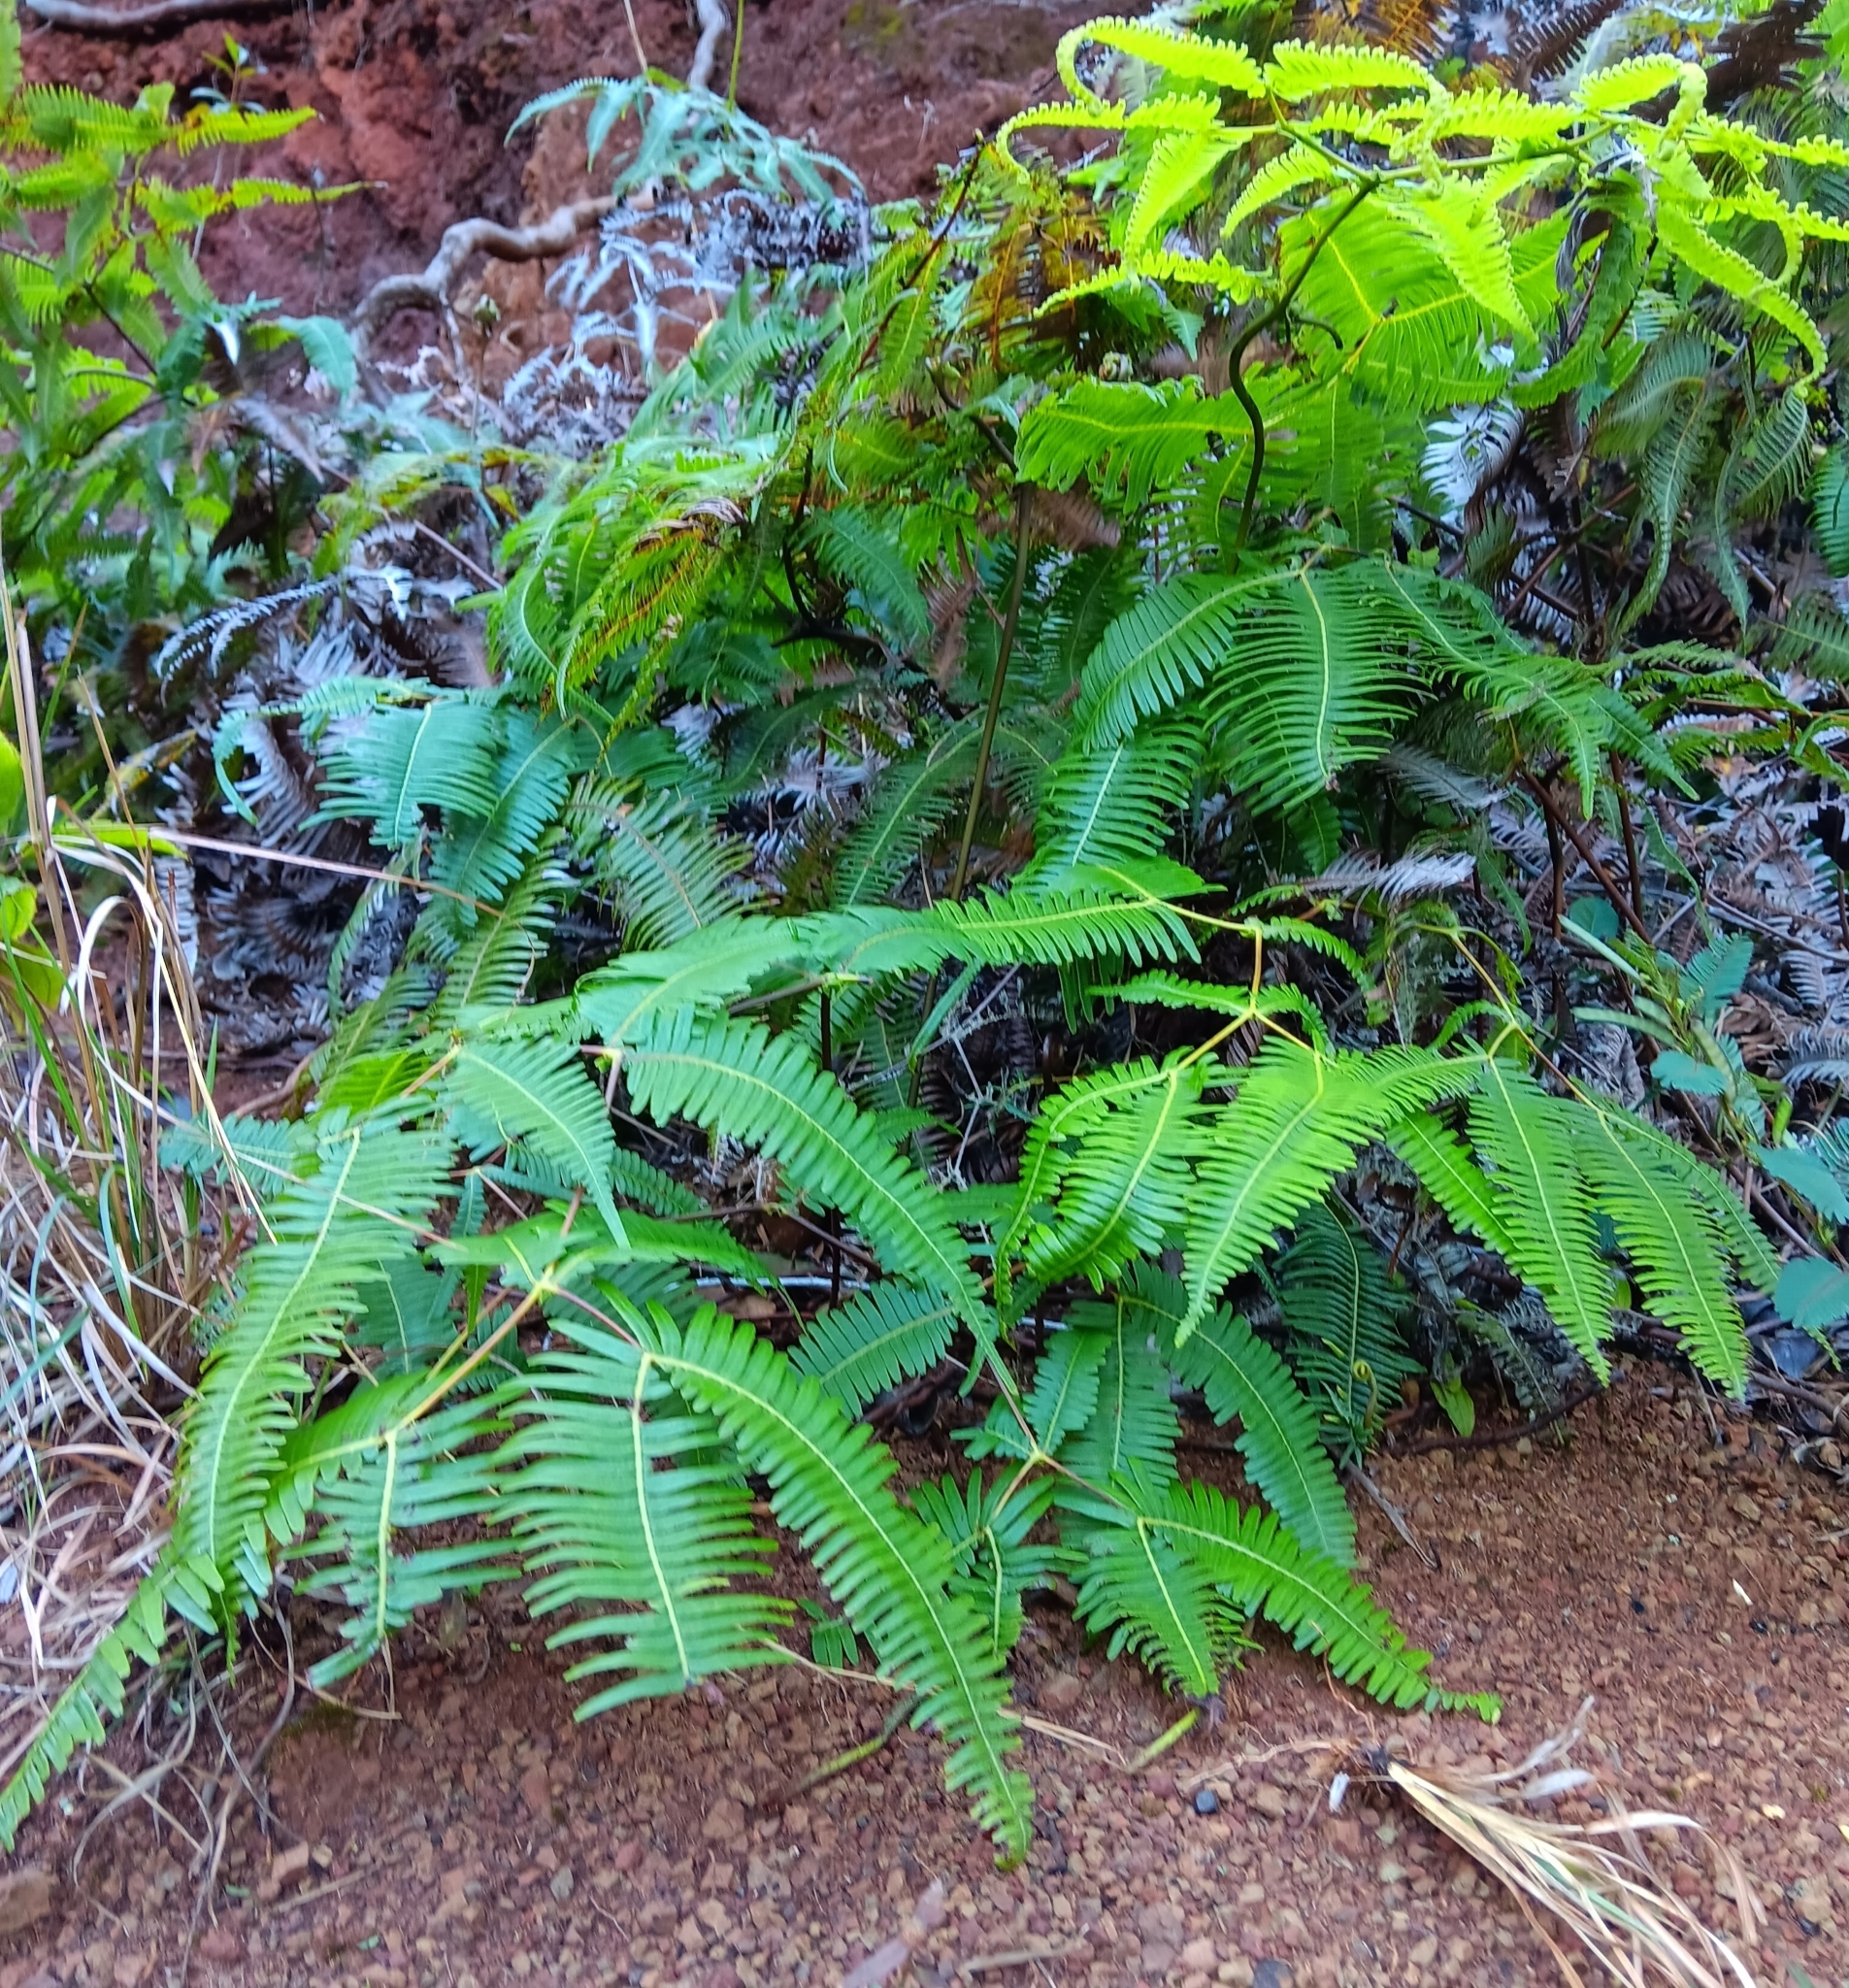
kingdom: Plantae
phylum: Tracheophyta
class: Polypodiopsida
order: Gleicheniales
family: Gleicheniaceae
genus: Dicranopteris
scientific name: Dicranopteris linearis
